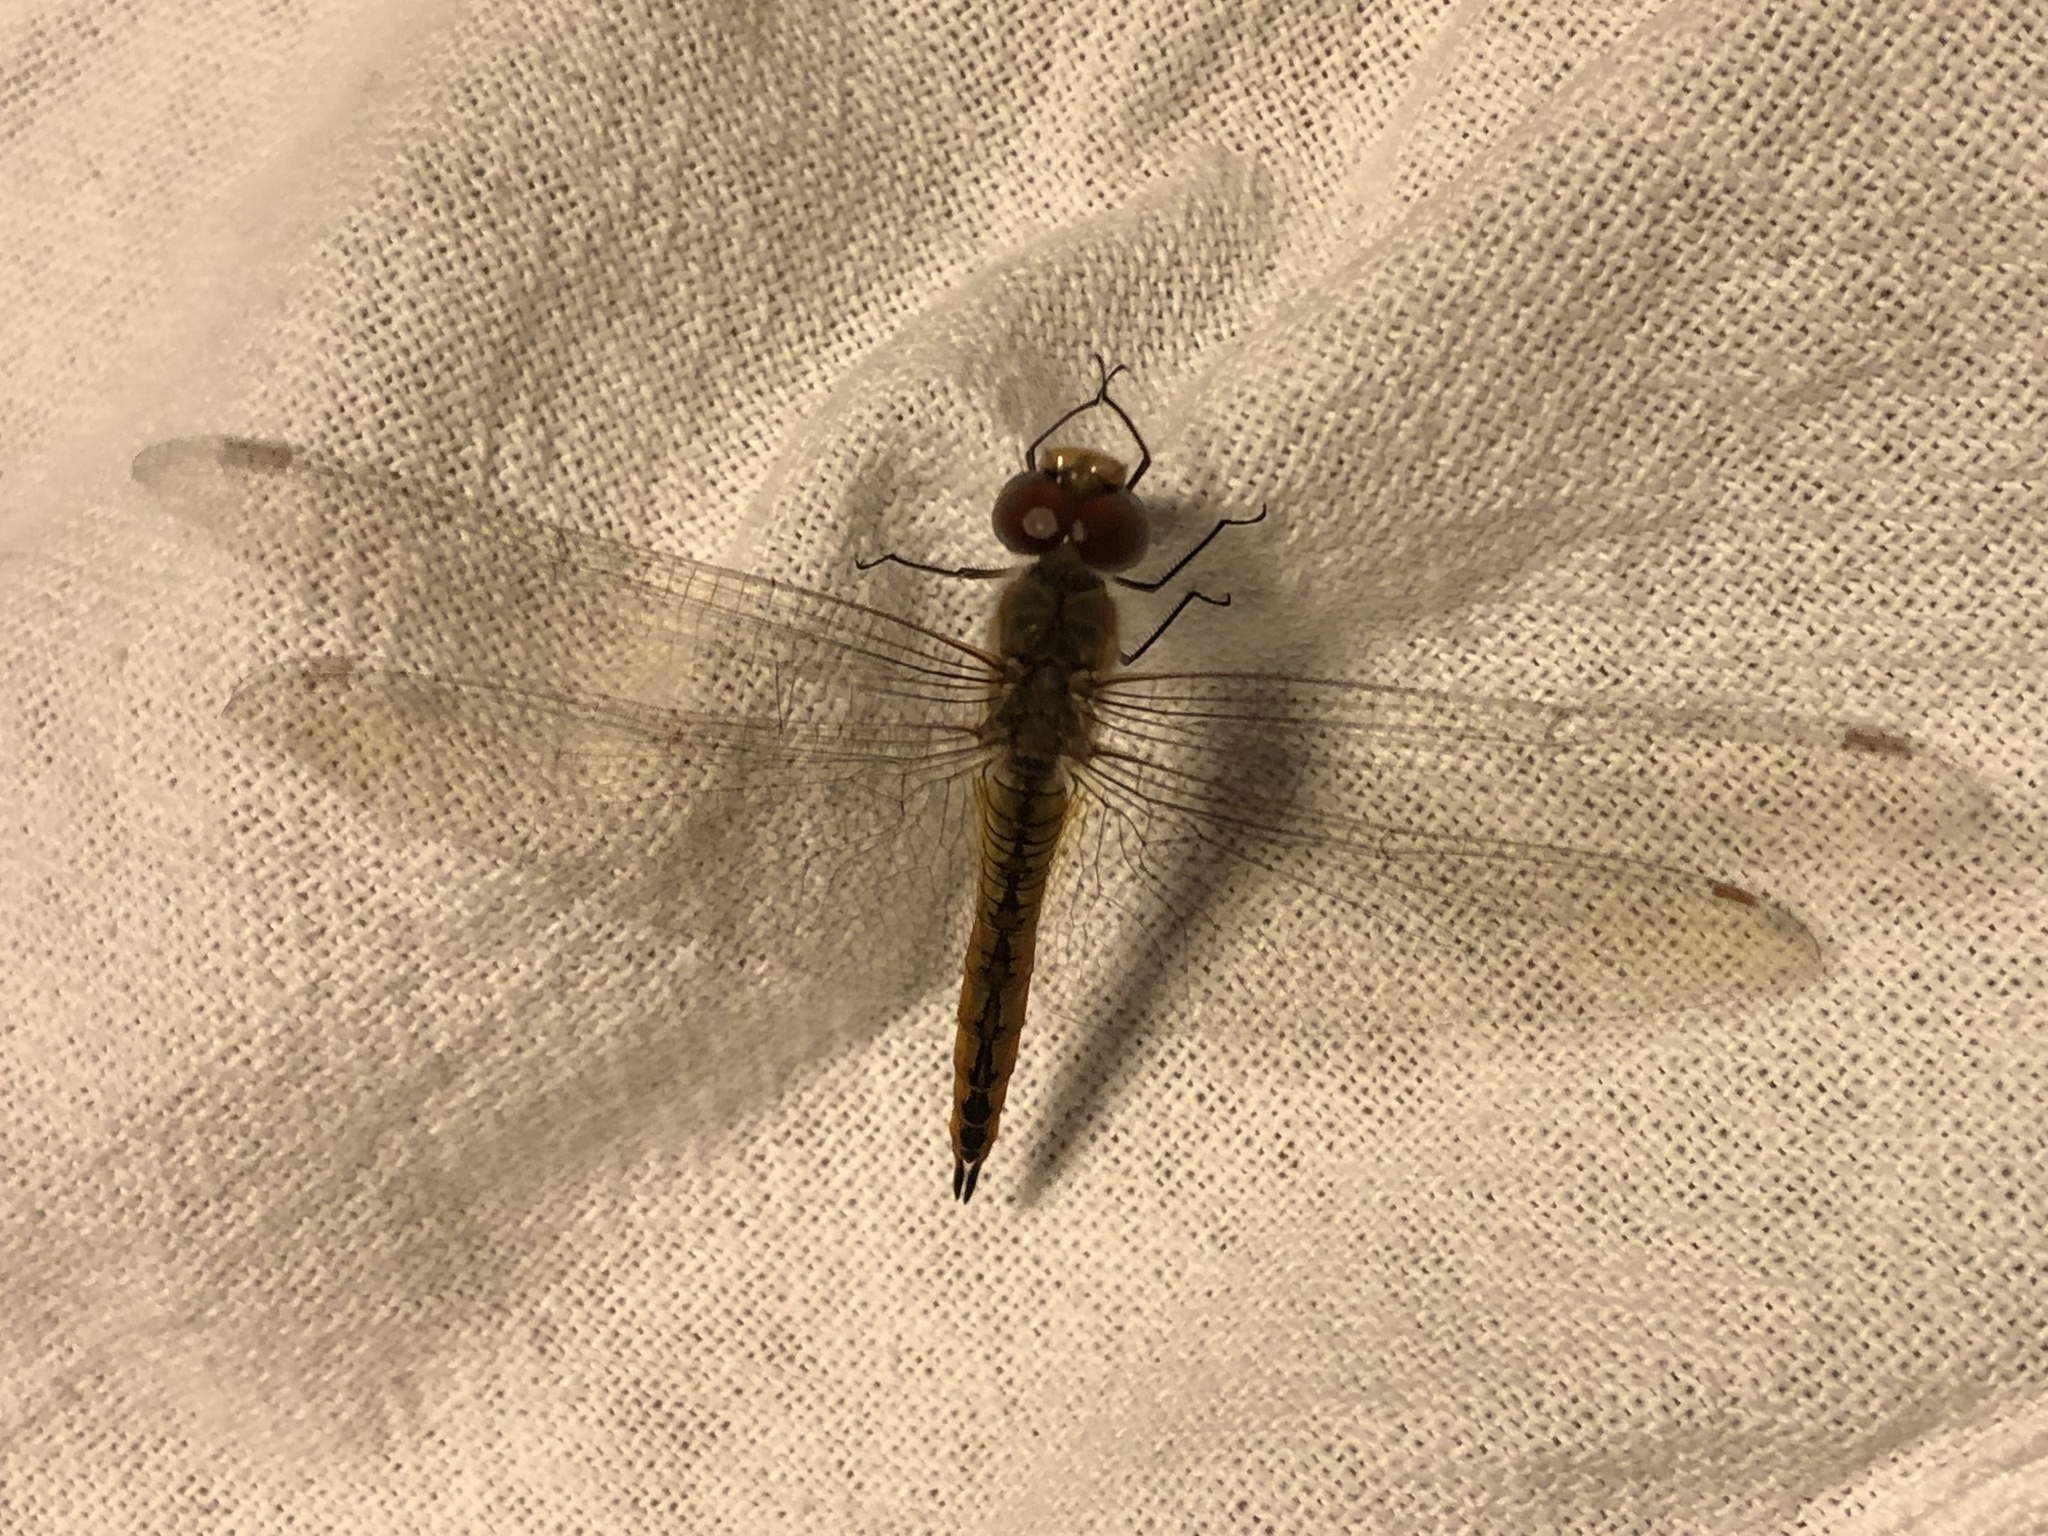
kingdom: Animalia
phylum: Arthropoda
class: Insecta
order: Odonata
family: Libellulidae
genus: Pantala
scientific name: Pantala flavescens
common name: Wandering glider
